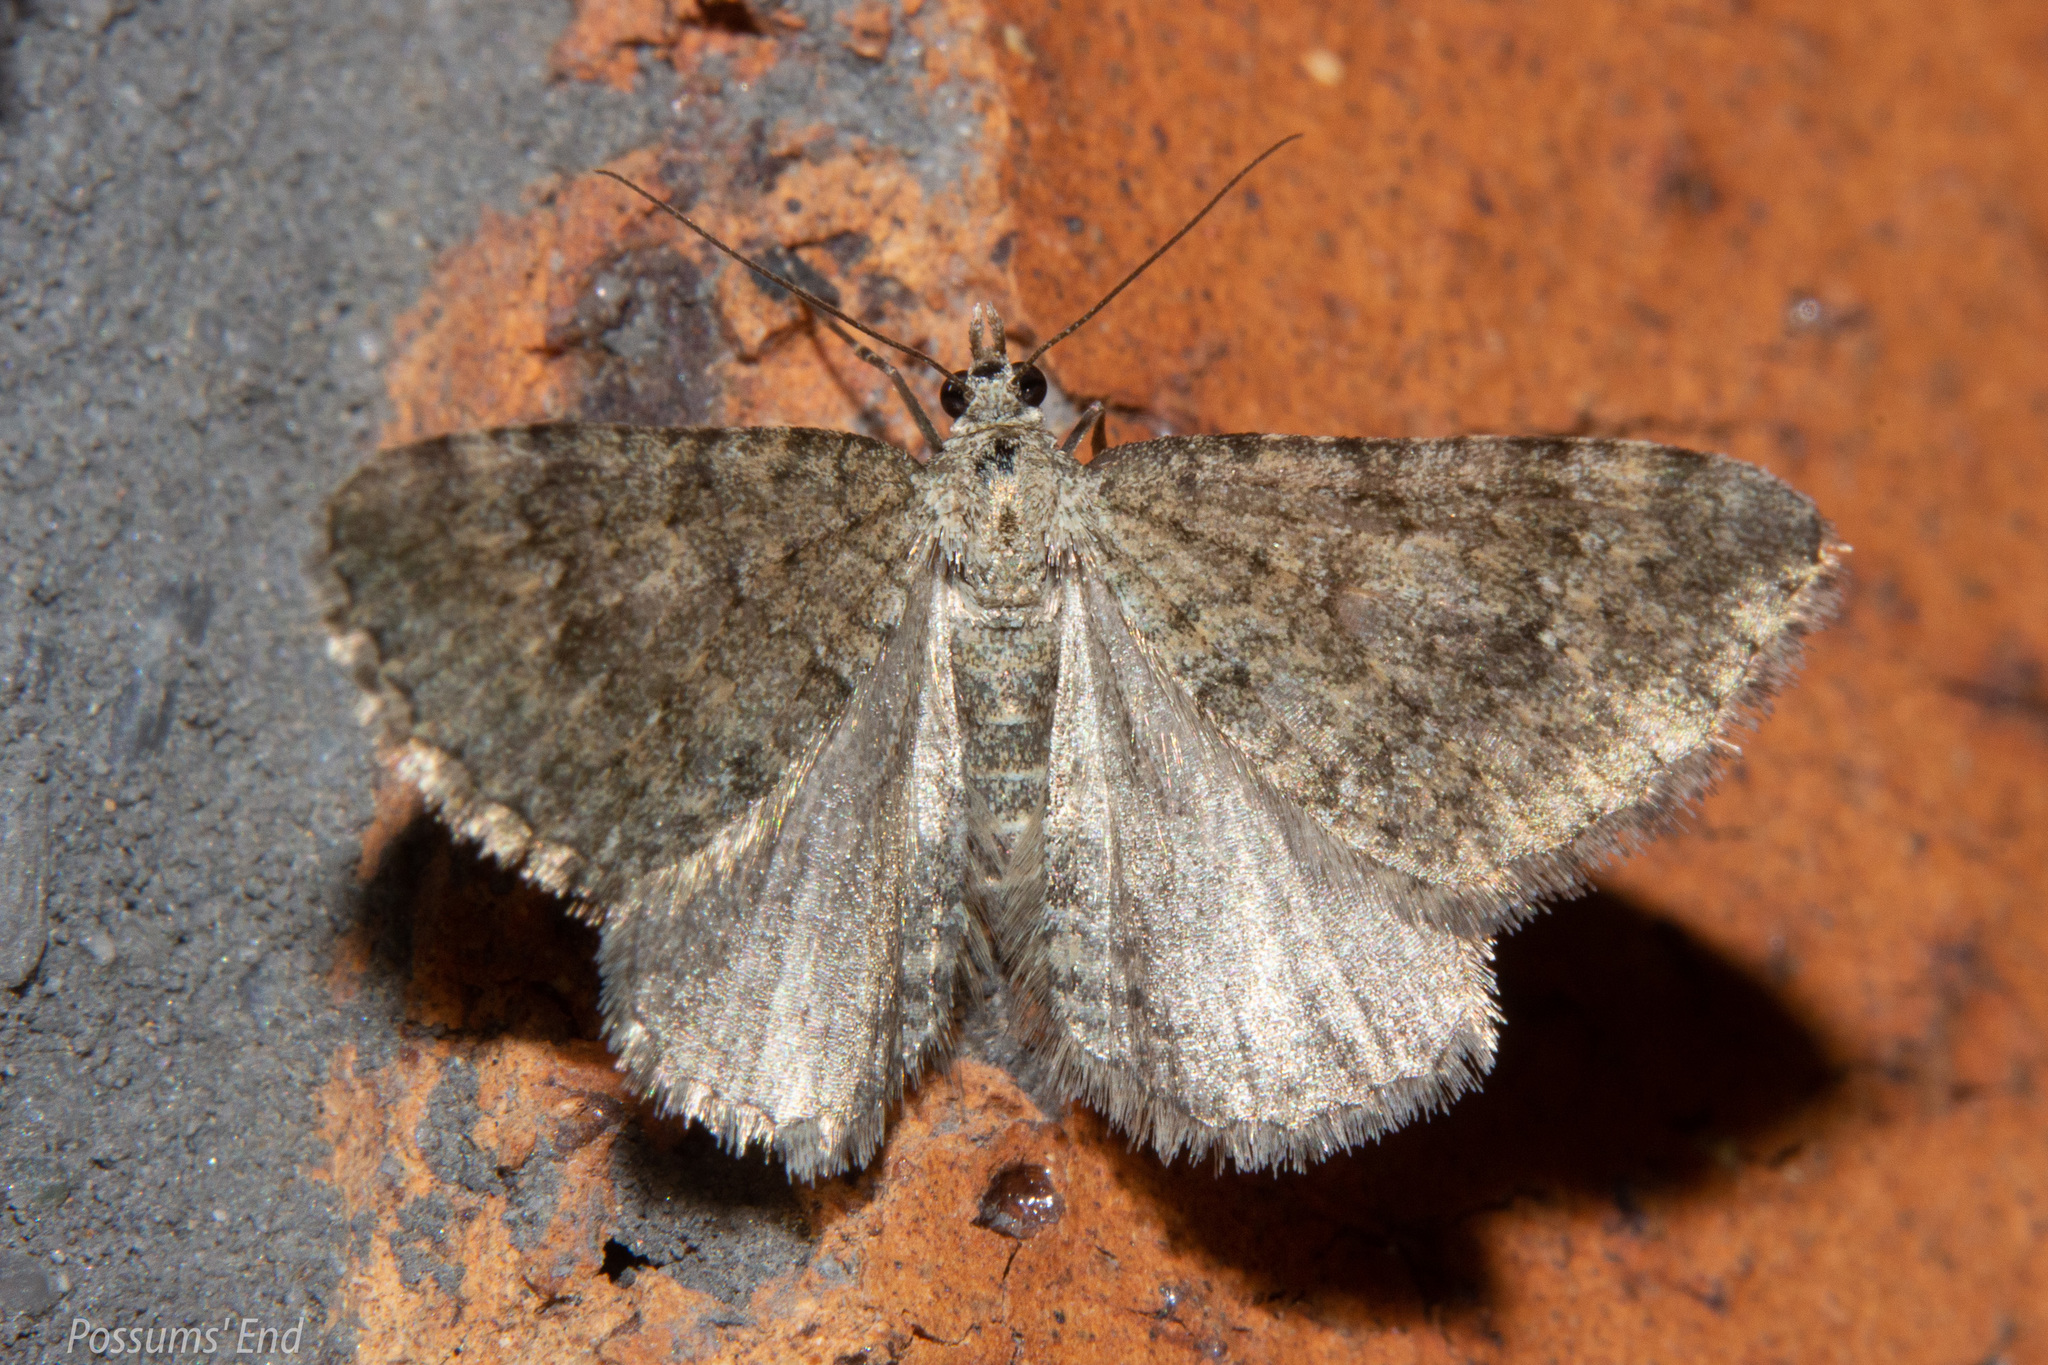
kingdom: Animalia
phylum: Arthropoda
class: Insecta
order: Lepidoptera
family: Geometridae
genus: Helastia
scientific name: Helastia corcularia
